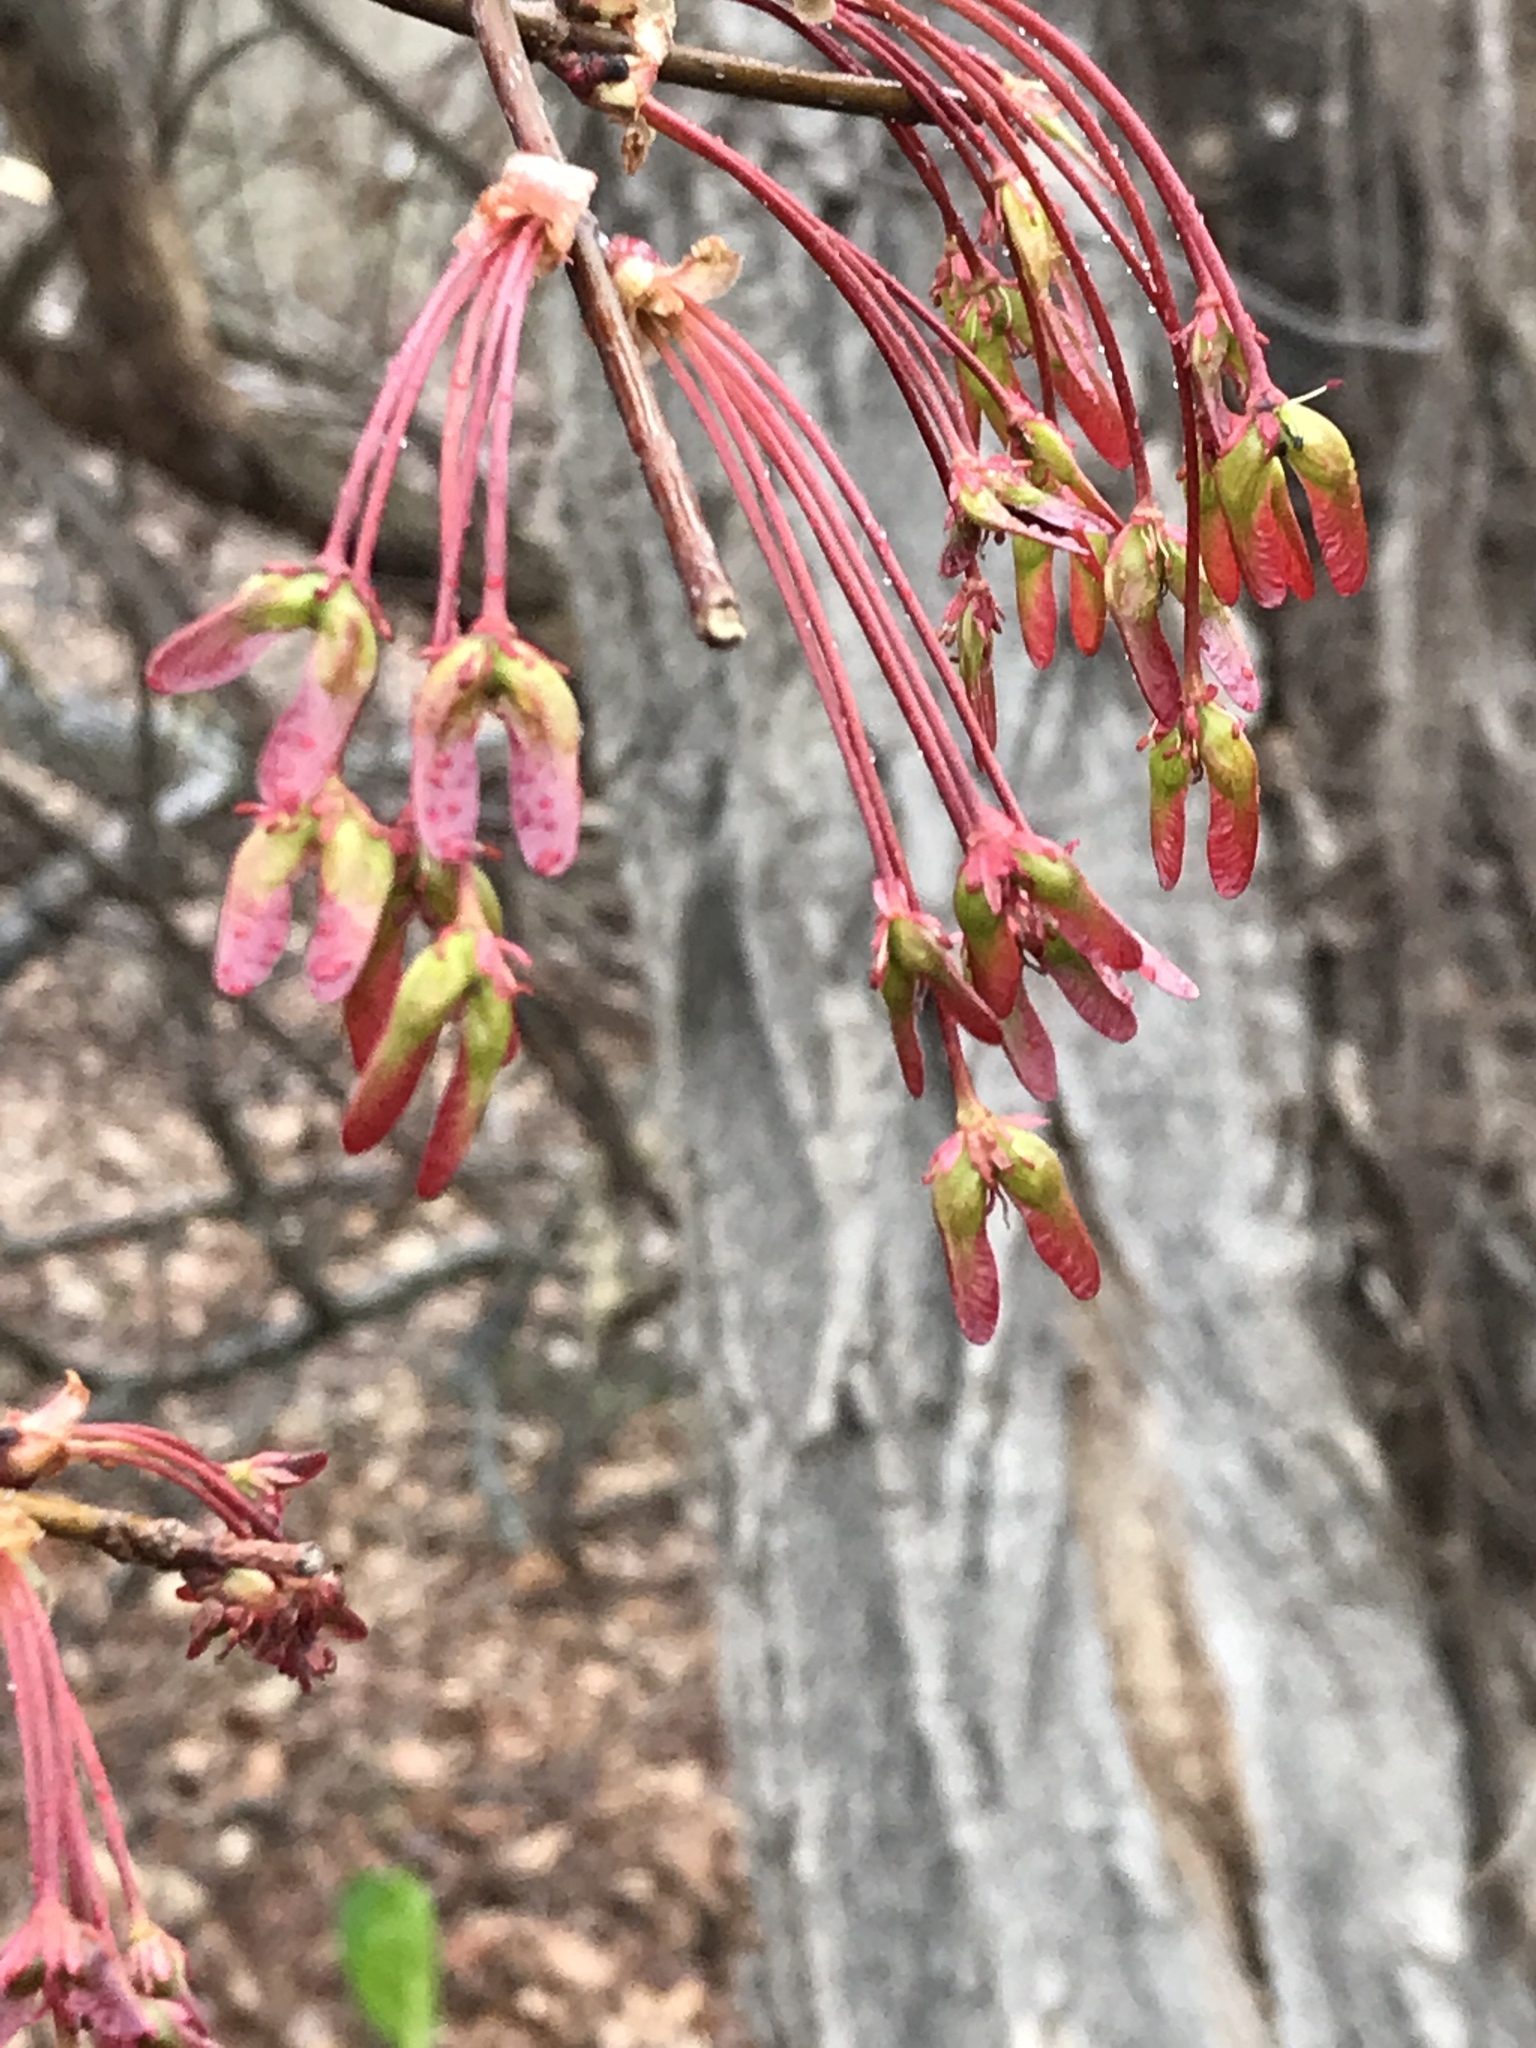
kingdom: Plantae
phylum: Tracheophyta
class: Magnoliopsida
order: Sapindales
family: Sapindaceae
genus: Acer
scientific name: Acer rubrum
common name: Red maple
